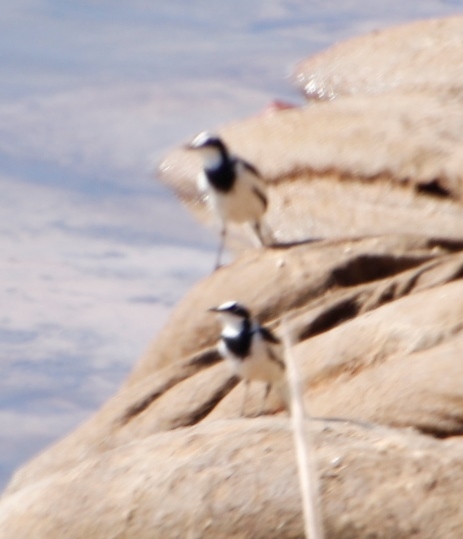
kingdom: Animalia
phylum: Chordata
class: Aves
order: Passeriformes
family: Motacillidae
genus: Motacilla
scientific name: Motacilla aguimp
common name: African pied wagtail
